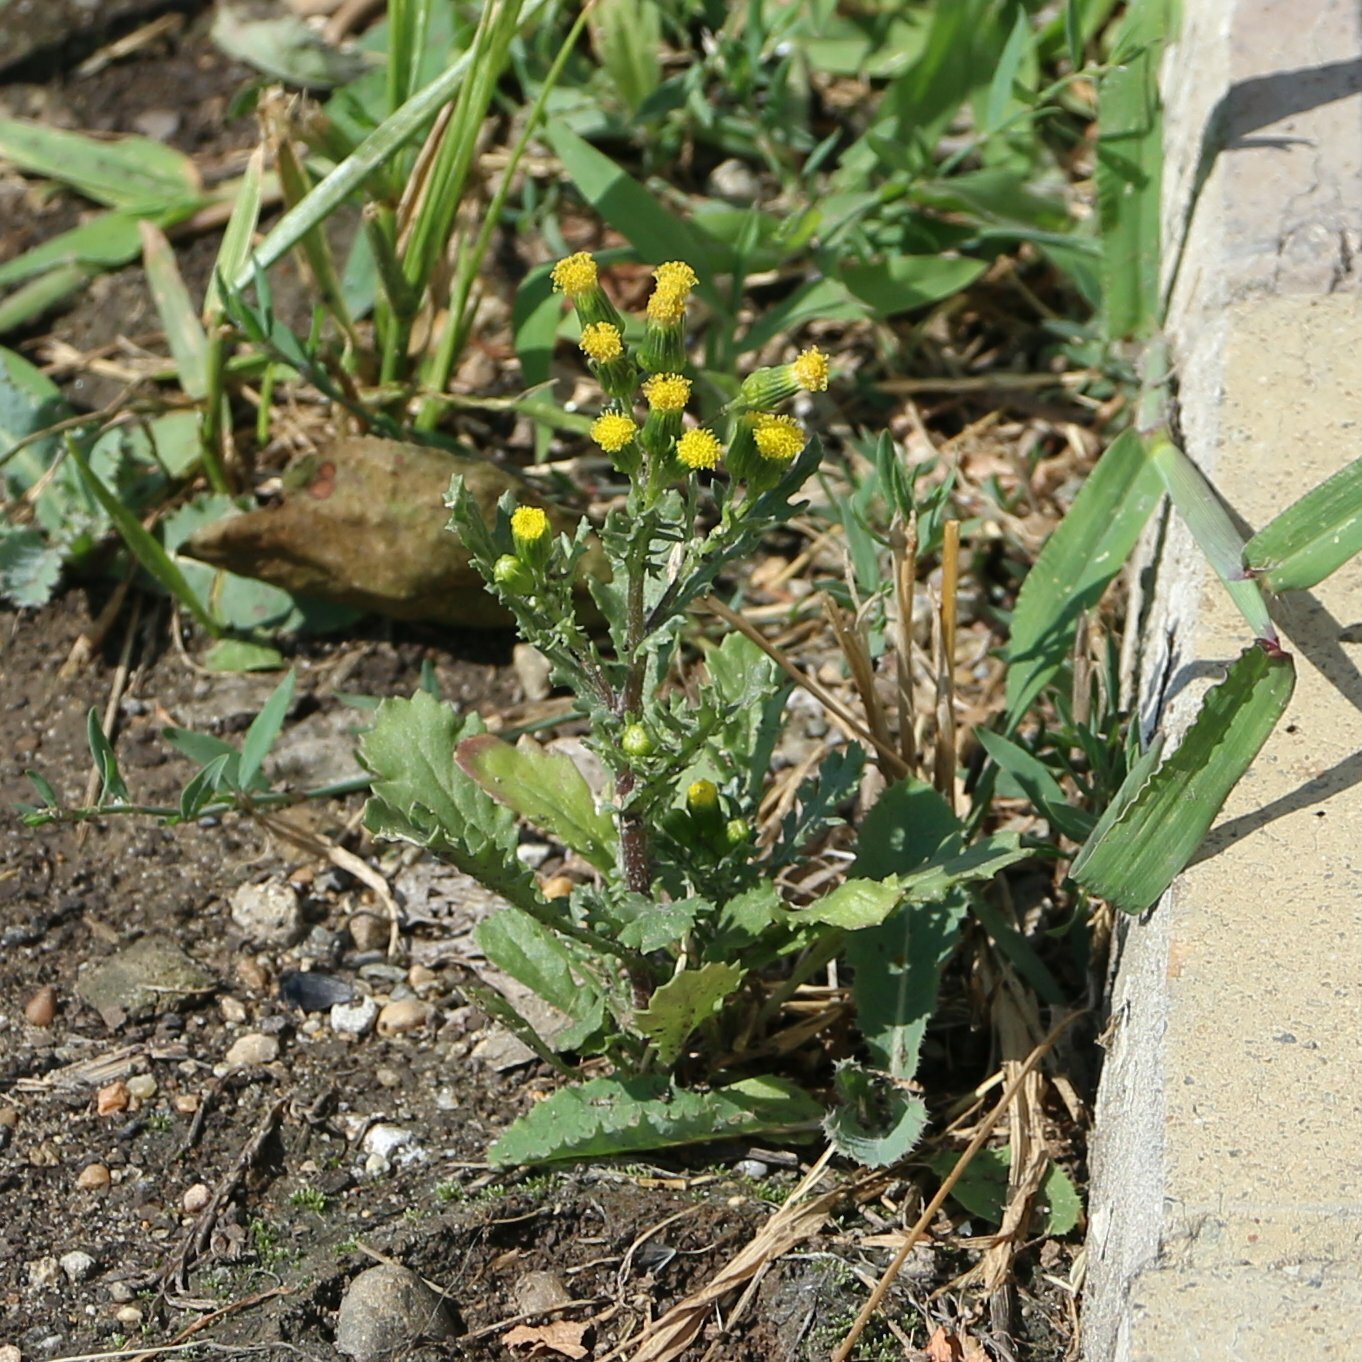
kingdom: Plantae
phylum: Tracheophyta
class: Magnoliopsida
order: Asterales
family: Asteraceae
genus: Senecio
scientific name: Senecio vulgaris
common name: Old-man-in-the-spring
